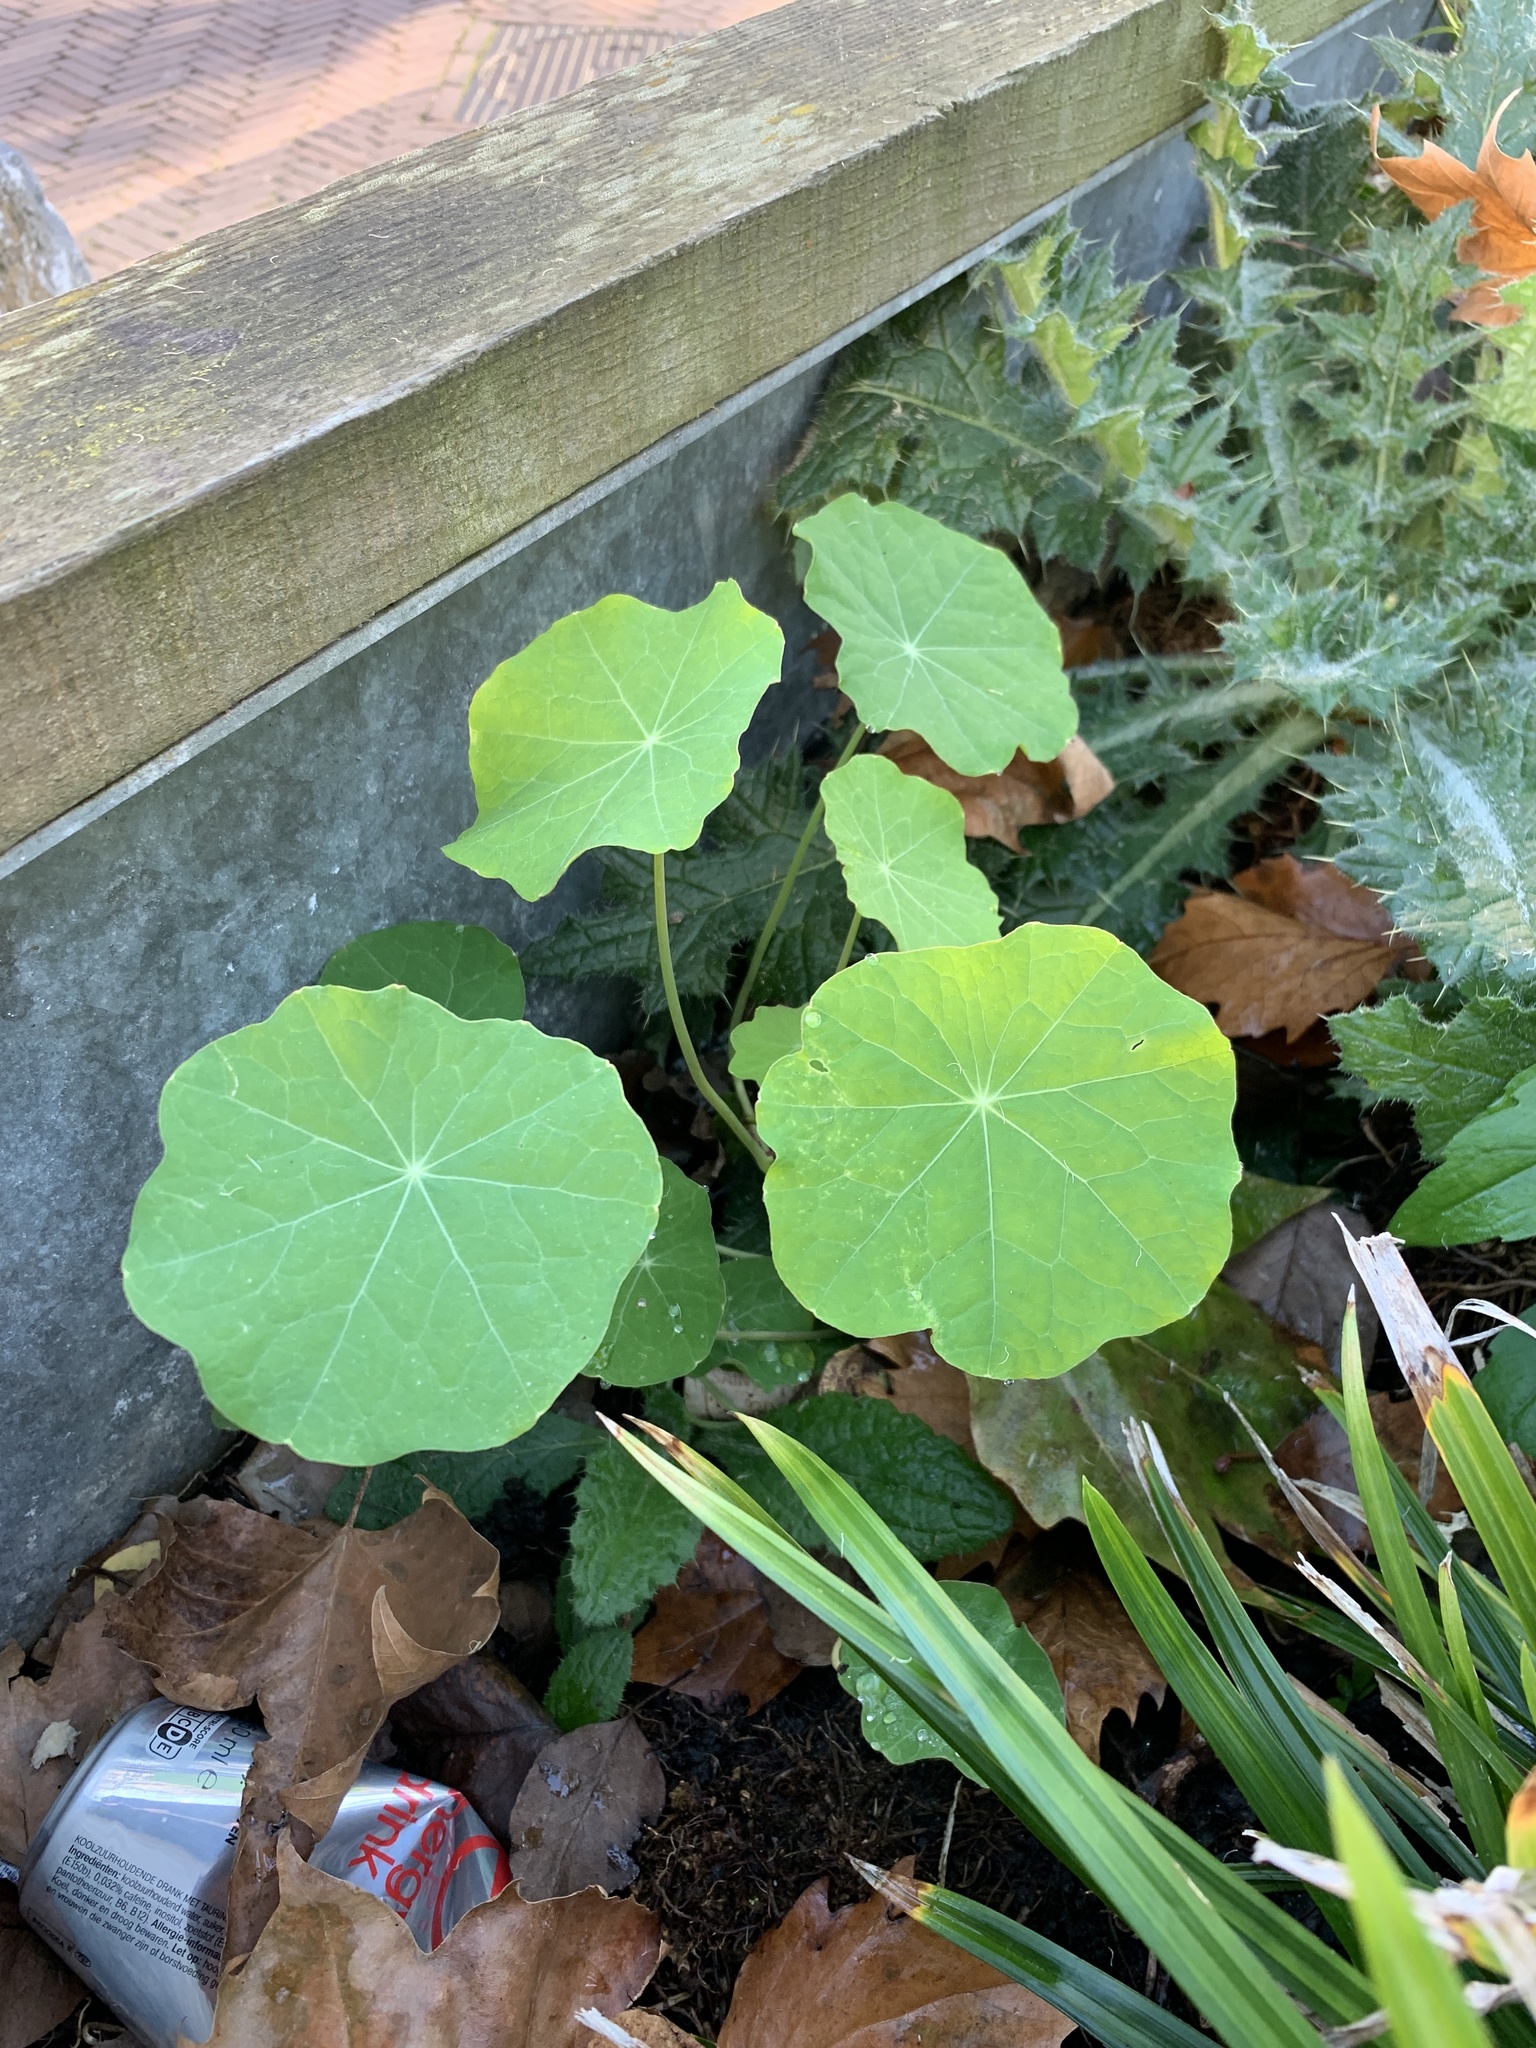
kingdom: Plantae
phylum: Tracheophyta
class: Magnoliopsida
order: Brassicales
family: Tropaeolaceae
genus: Tropaeolum
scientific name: Tropaeolum majus
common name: Nasturtium
